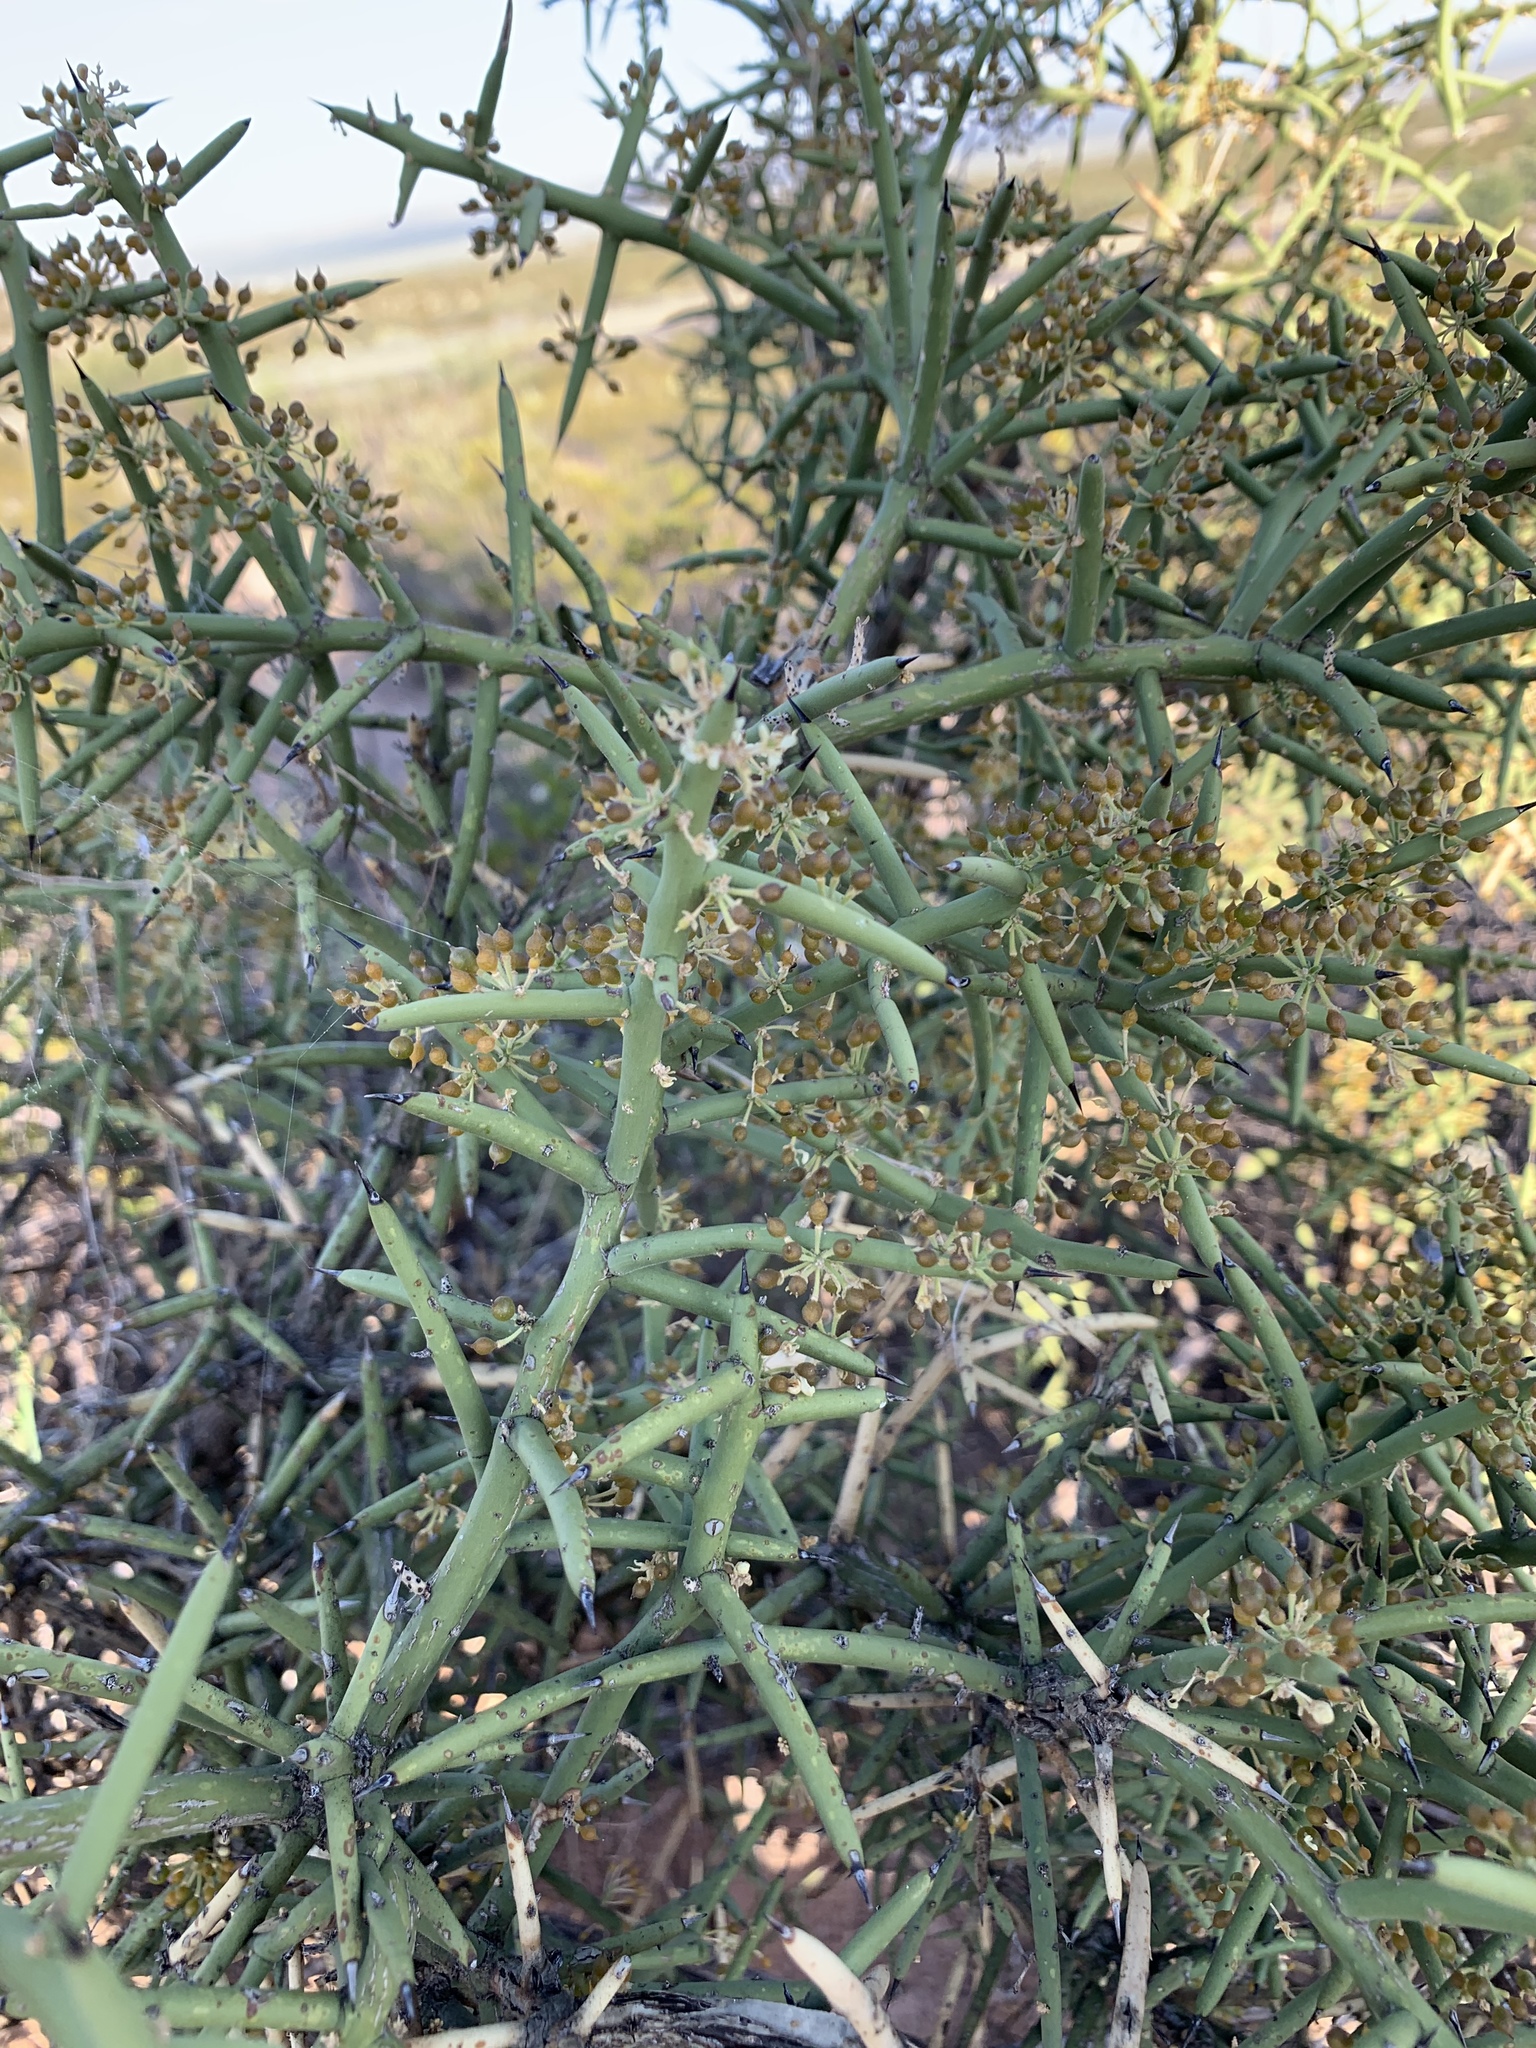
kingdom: Plantae
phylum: Tracheophyta
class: Magnoliopsida
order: Brassicales
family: Koeberliniaceae
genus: Koeberlinia
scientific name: Koeberlinia spinosa
